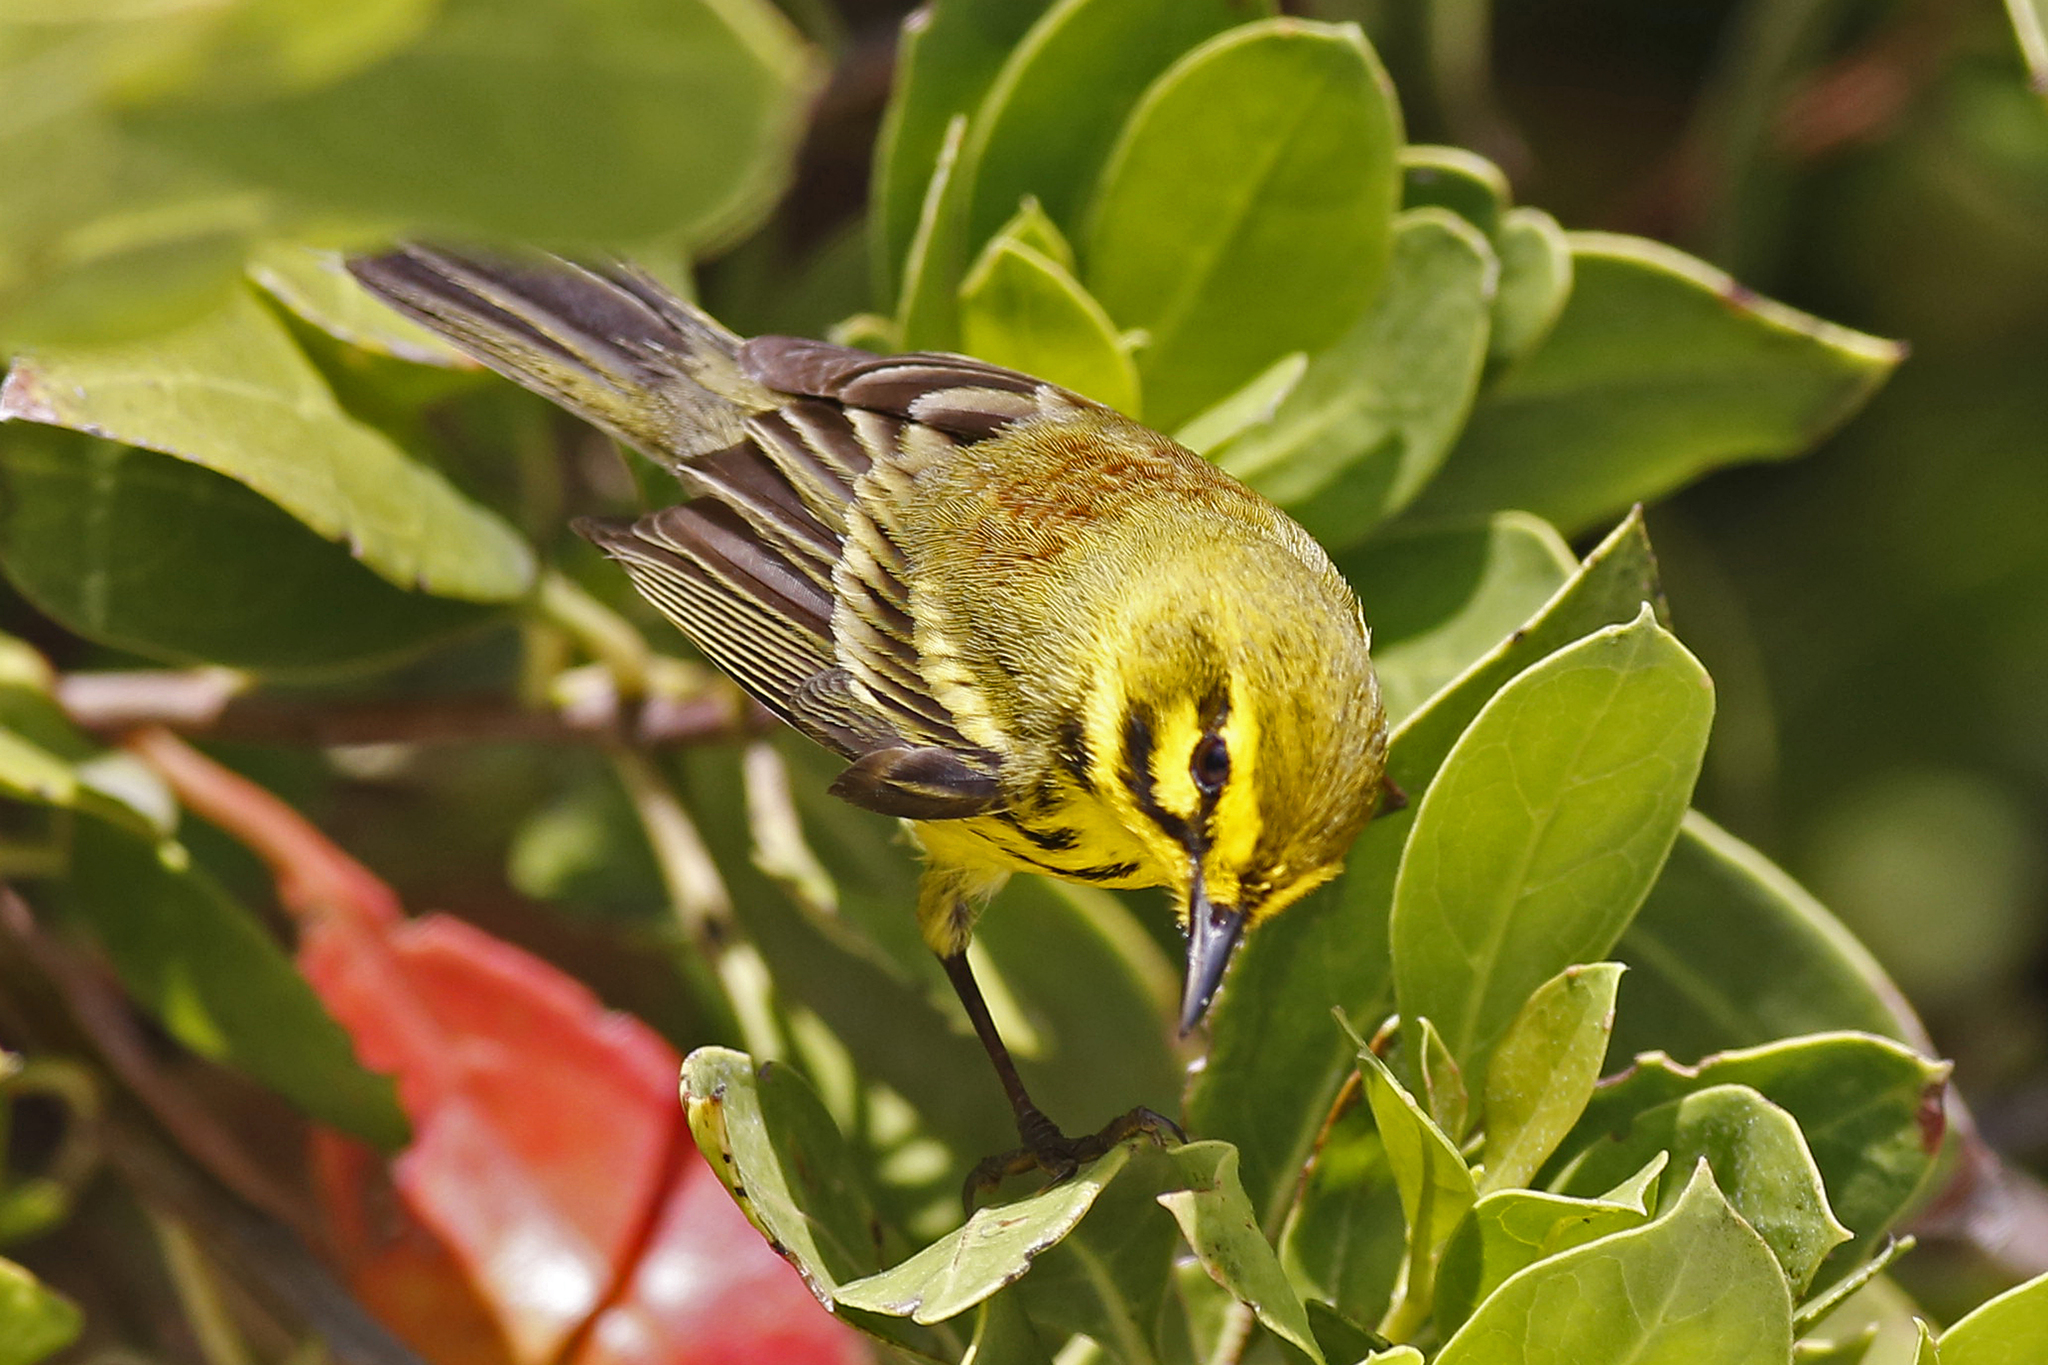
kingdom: Animalia
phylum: Chordata
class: Aves
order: Passeriformes
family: Parulidae
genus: Setophaga
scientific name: Setophaga discolor
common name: Prairie warbler
